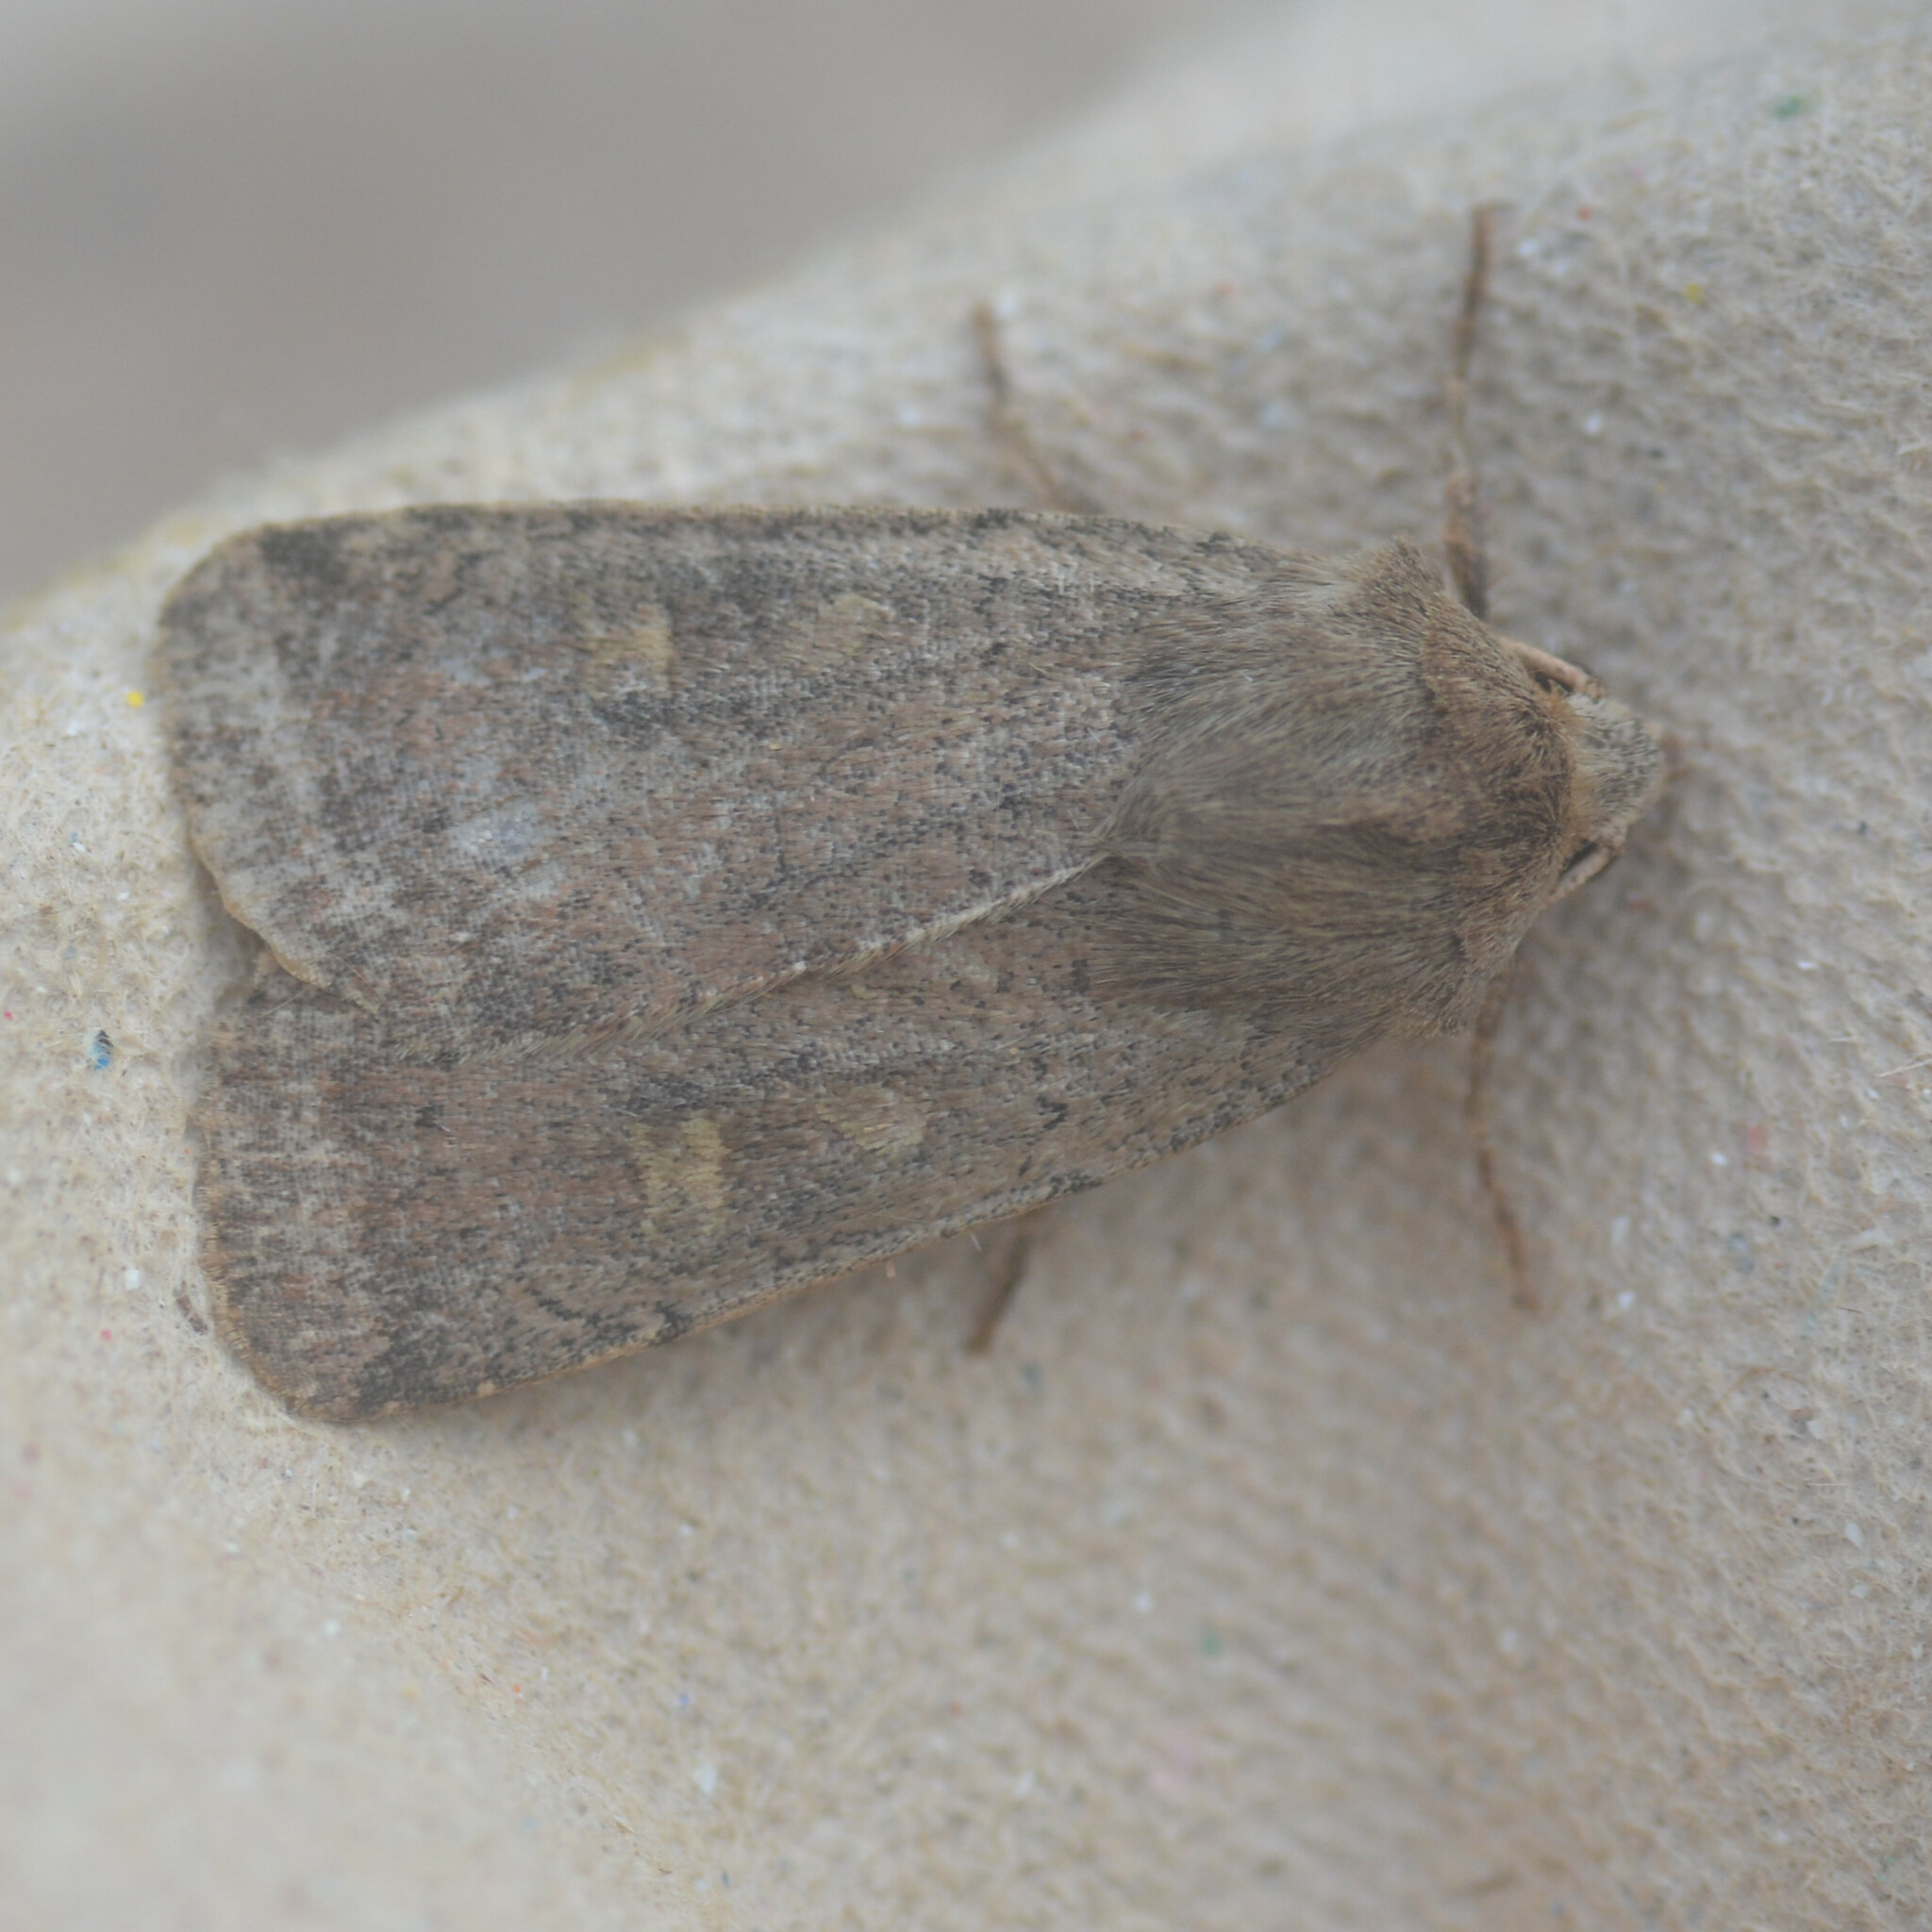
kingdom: Animalia
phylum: Arthropoda
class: Insecta
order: Lepidoptera
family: Noctuidae
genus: Xestia
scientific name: Xestia xanthographa
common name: Square-spot rustic
